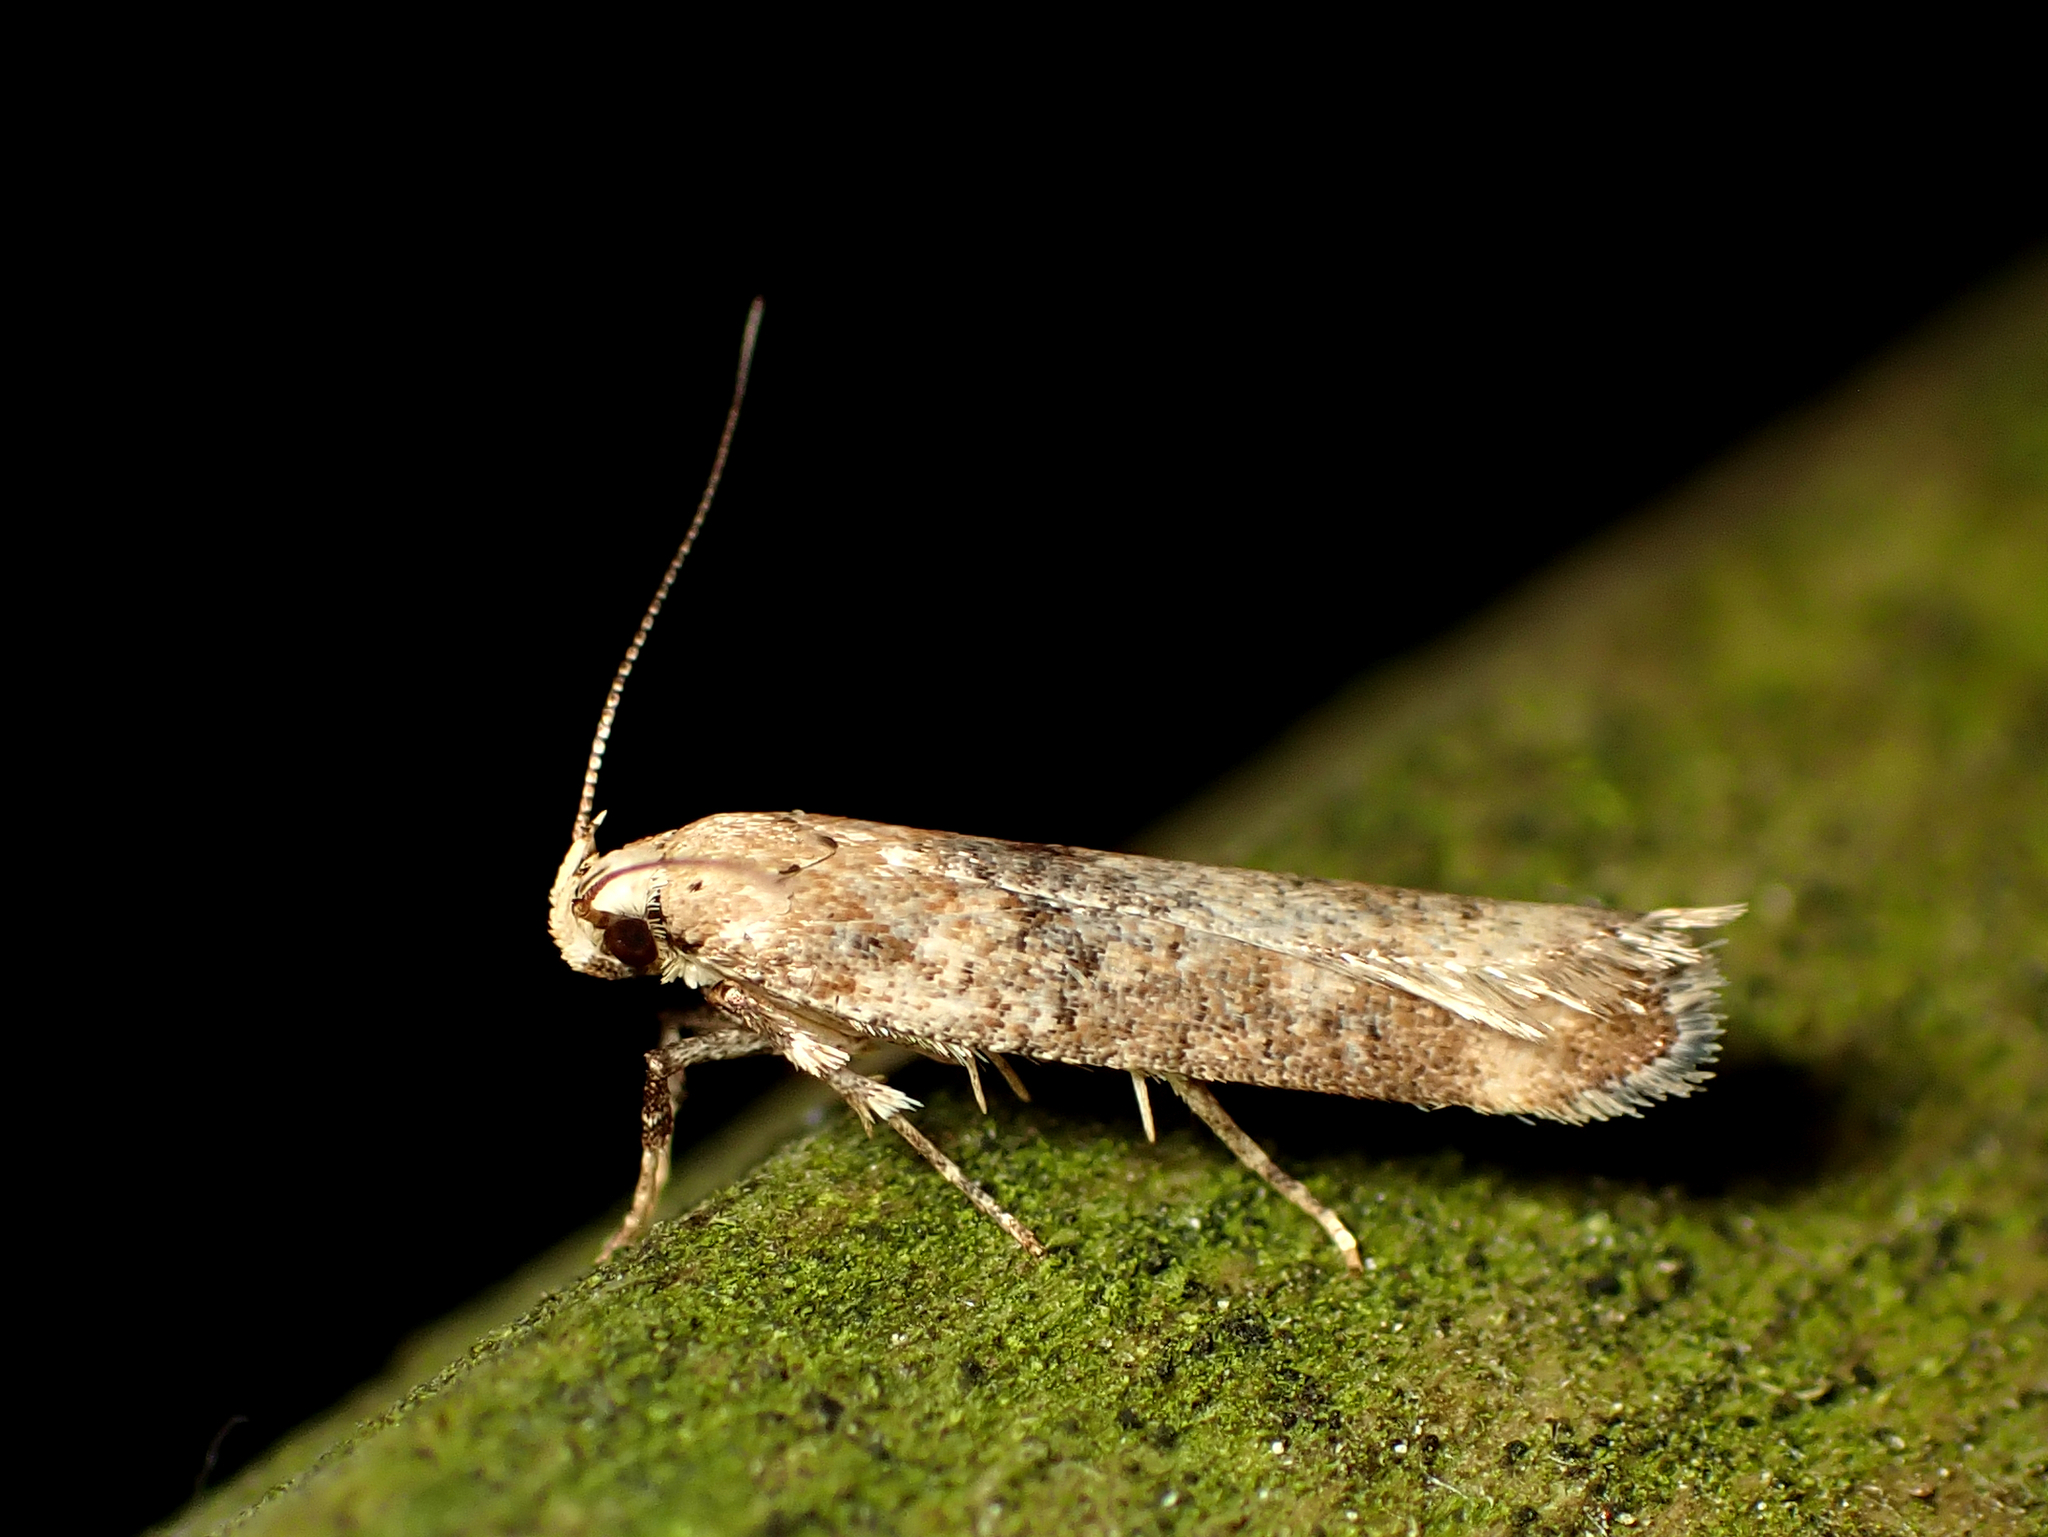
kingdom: Animalia
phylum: Arthropoda
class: Insecta
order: Lepidoptera
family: Gelechiidae
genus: Anisoplaca
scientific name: Anisoplaca acrodactyla
